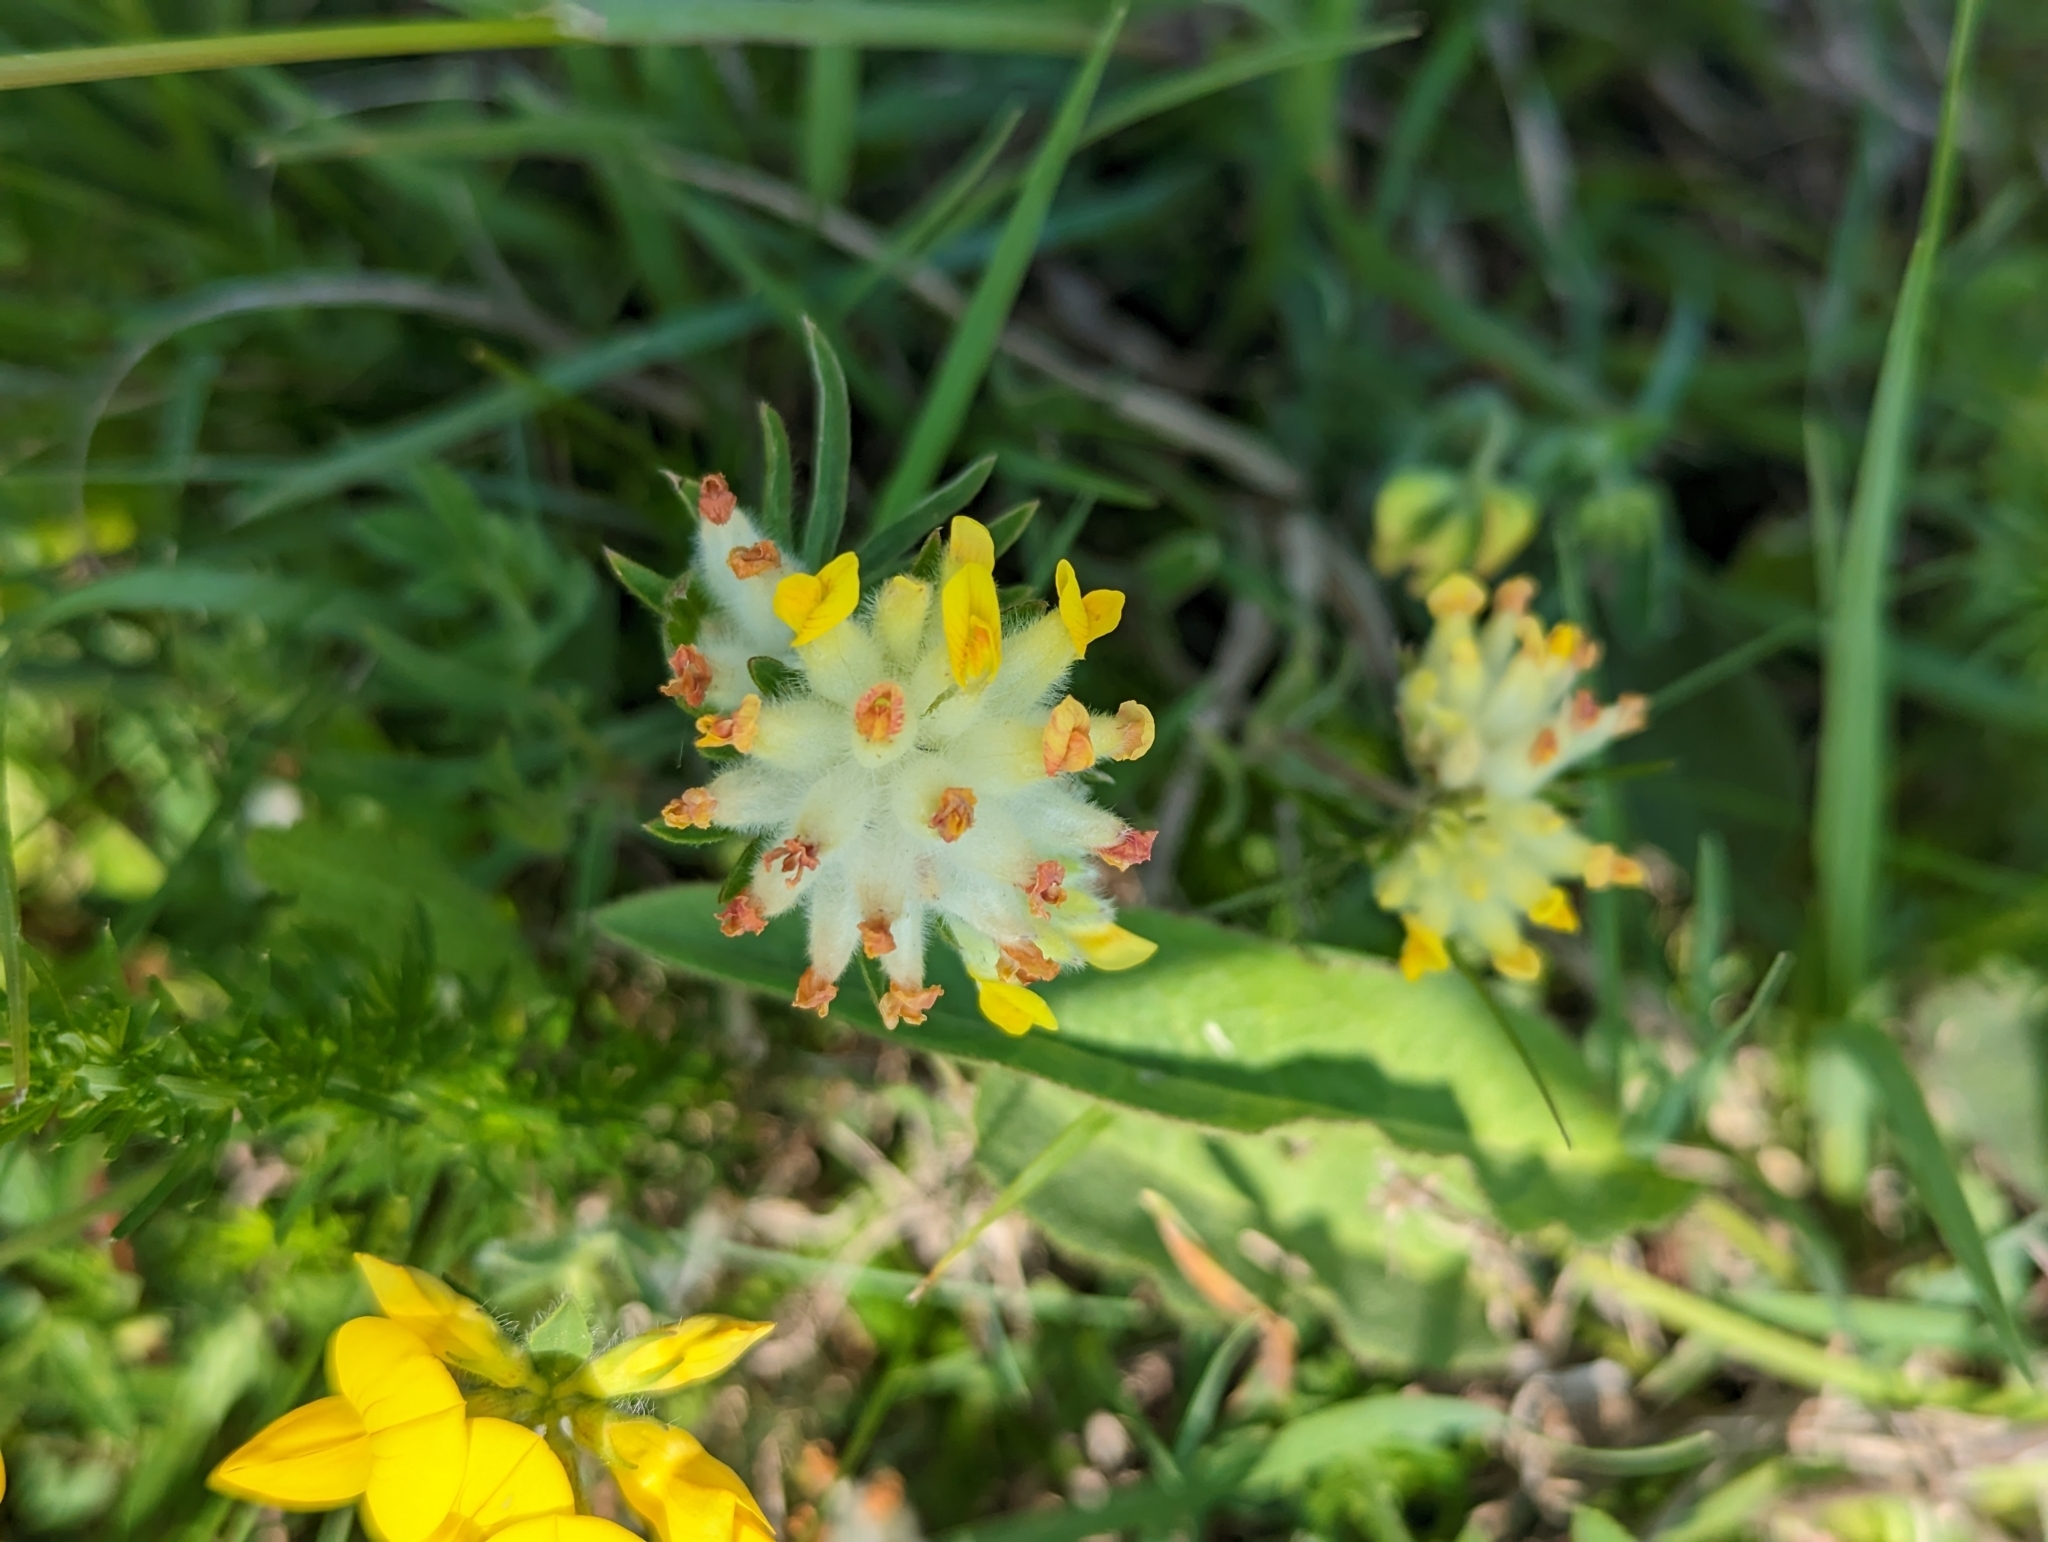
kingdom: Plantae
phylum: Tracheophyta
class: Magnoliopsida
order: Fabales
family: Fabaceae
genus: Anthyllis
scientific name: Anthyllis vulneraria
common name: Kidney vetch
